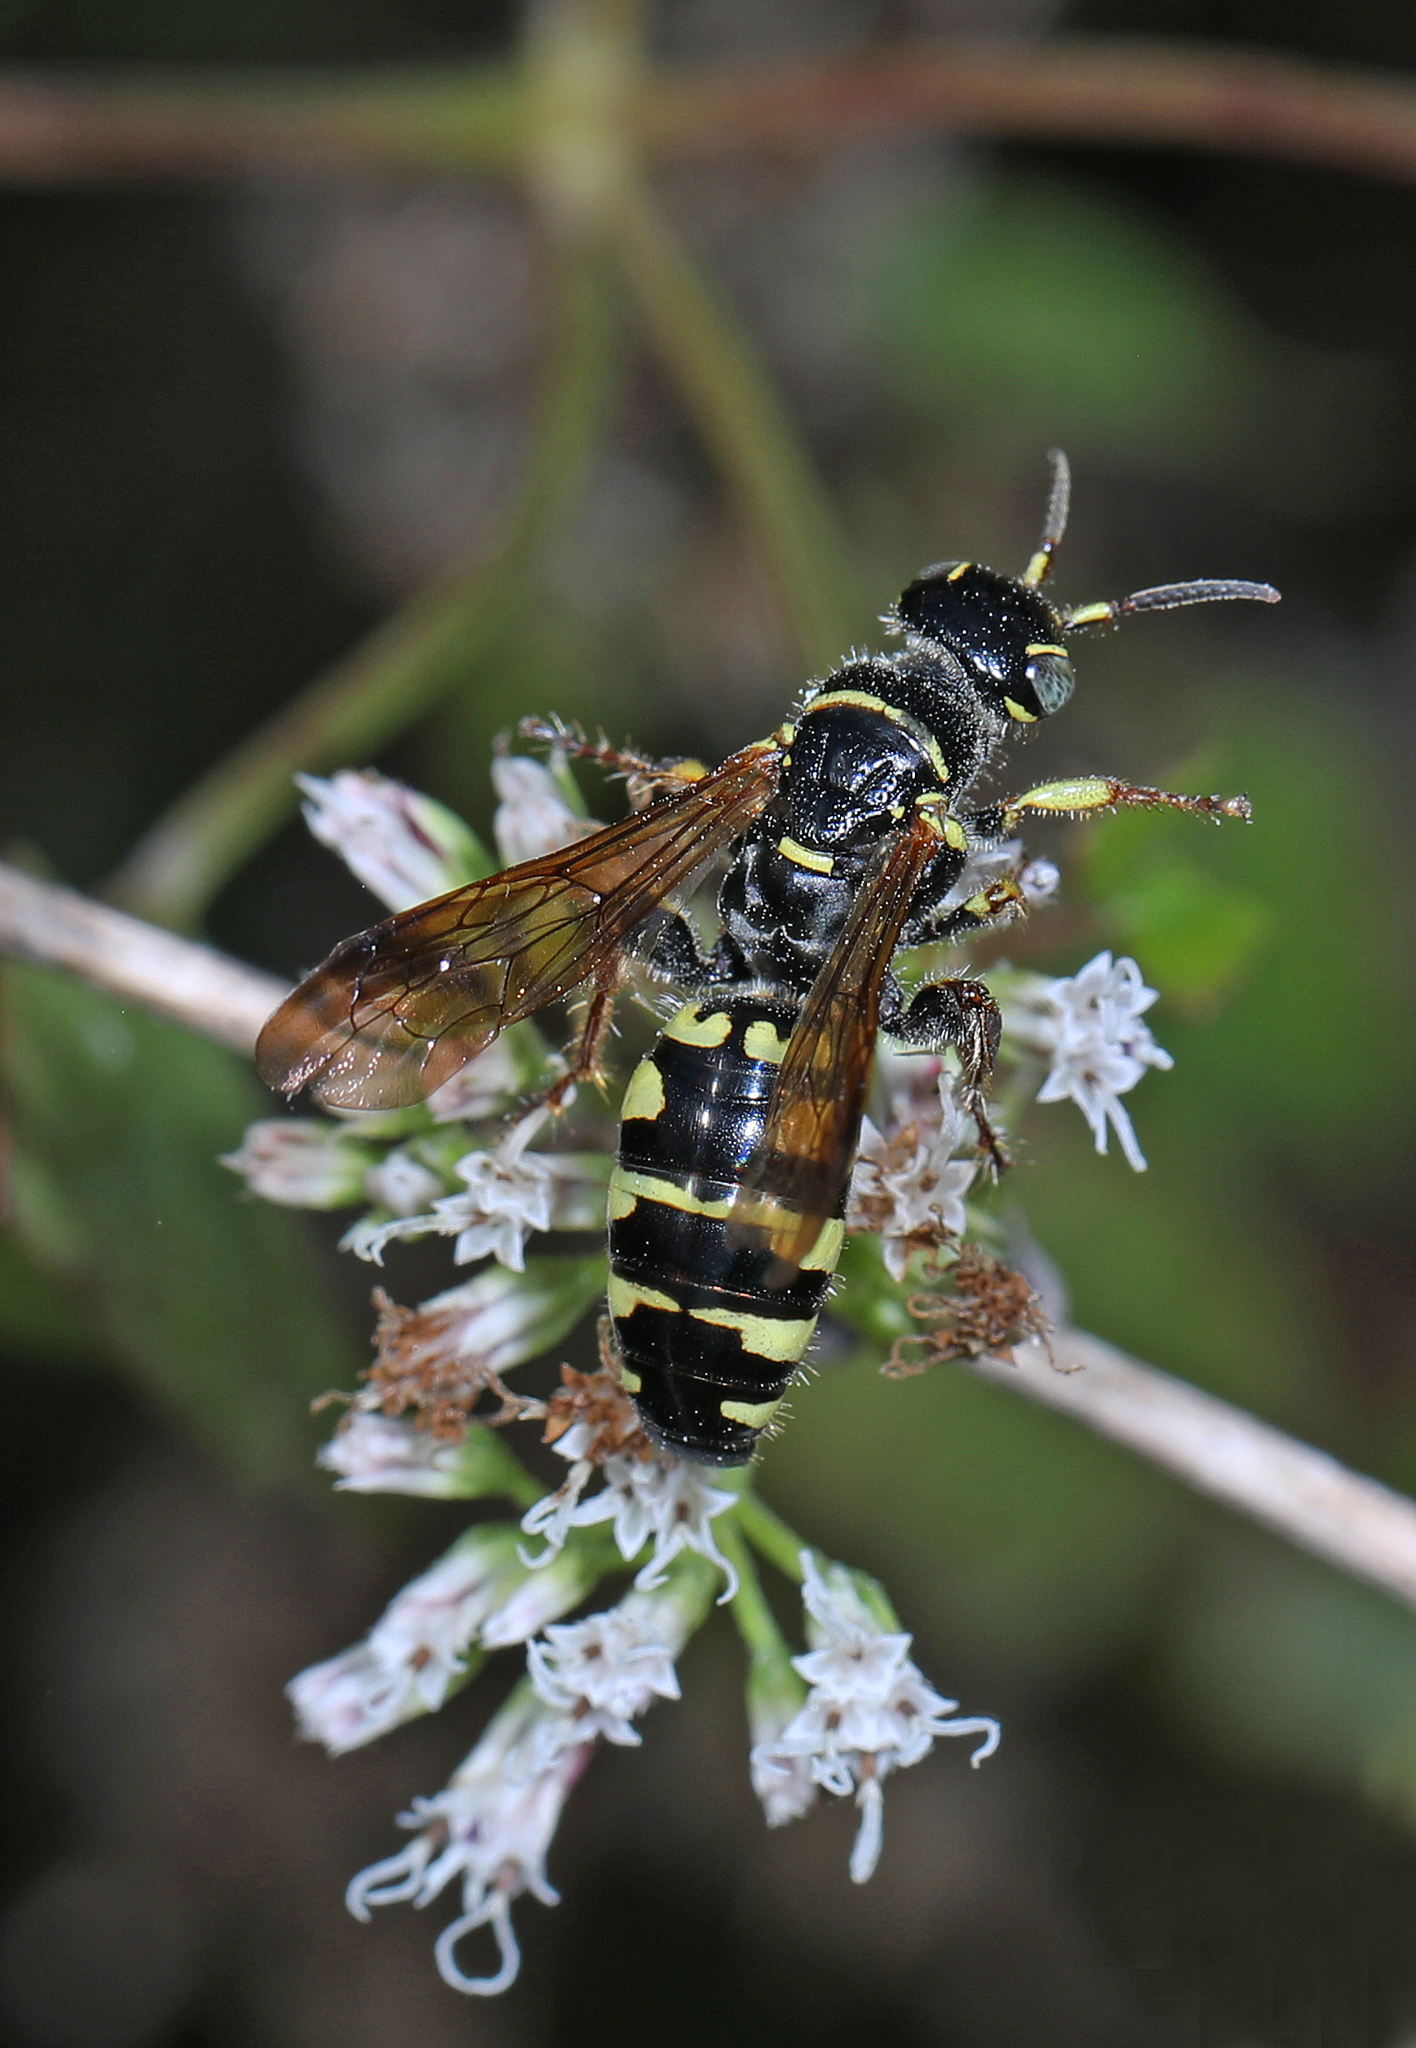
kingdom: Animalia
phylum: Arthropoda
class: Insecta
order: Hymenoptera
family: Tiphiidae
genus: Myzinum
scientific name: Myzinum carolinianum
